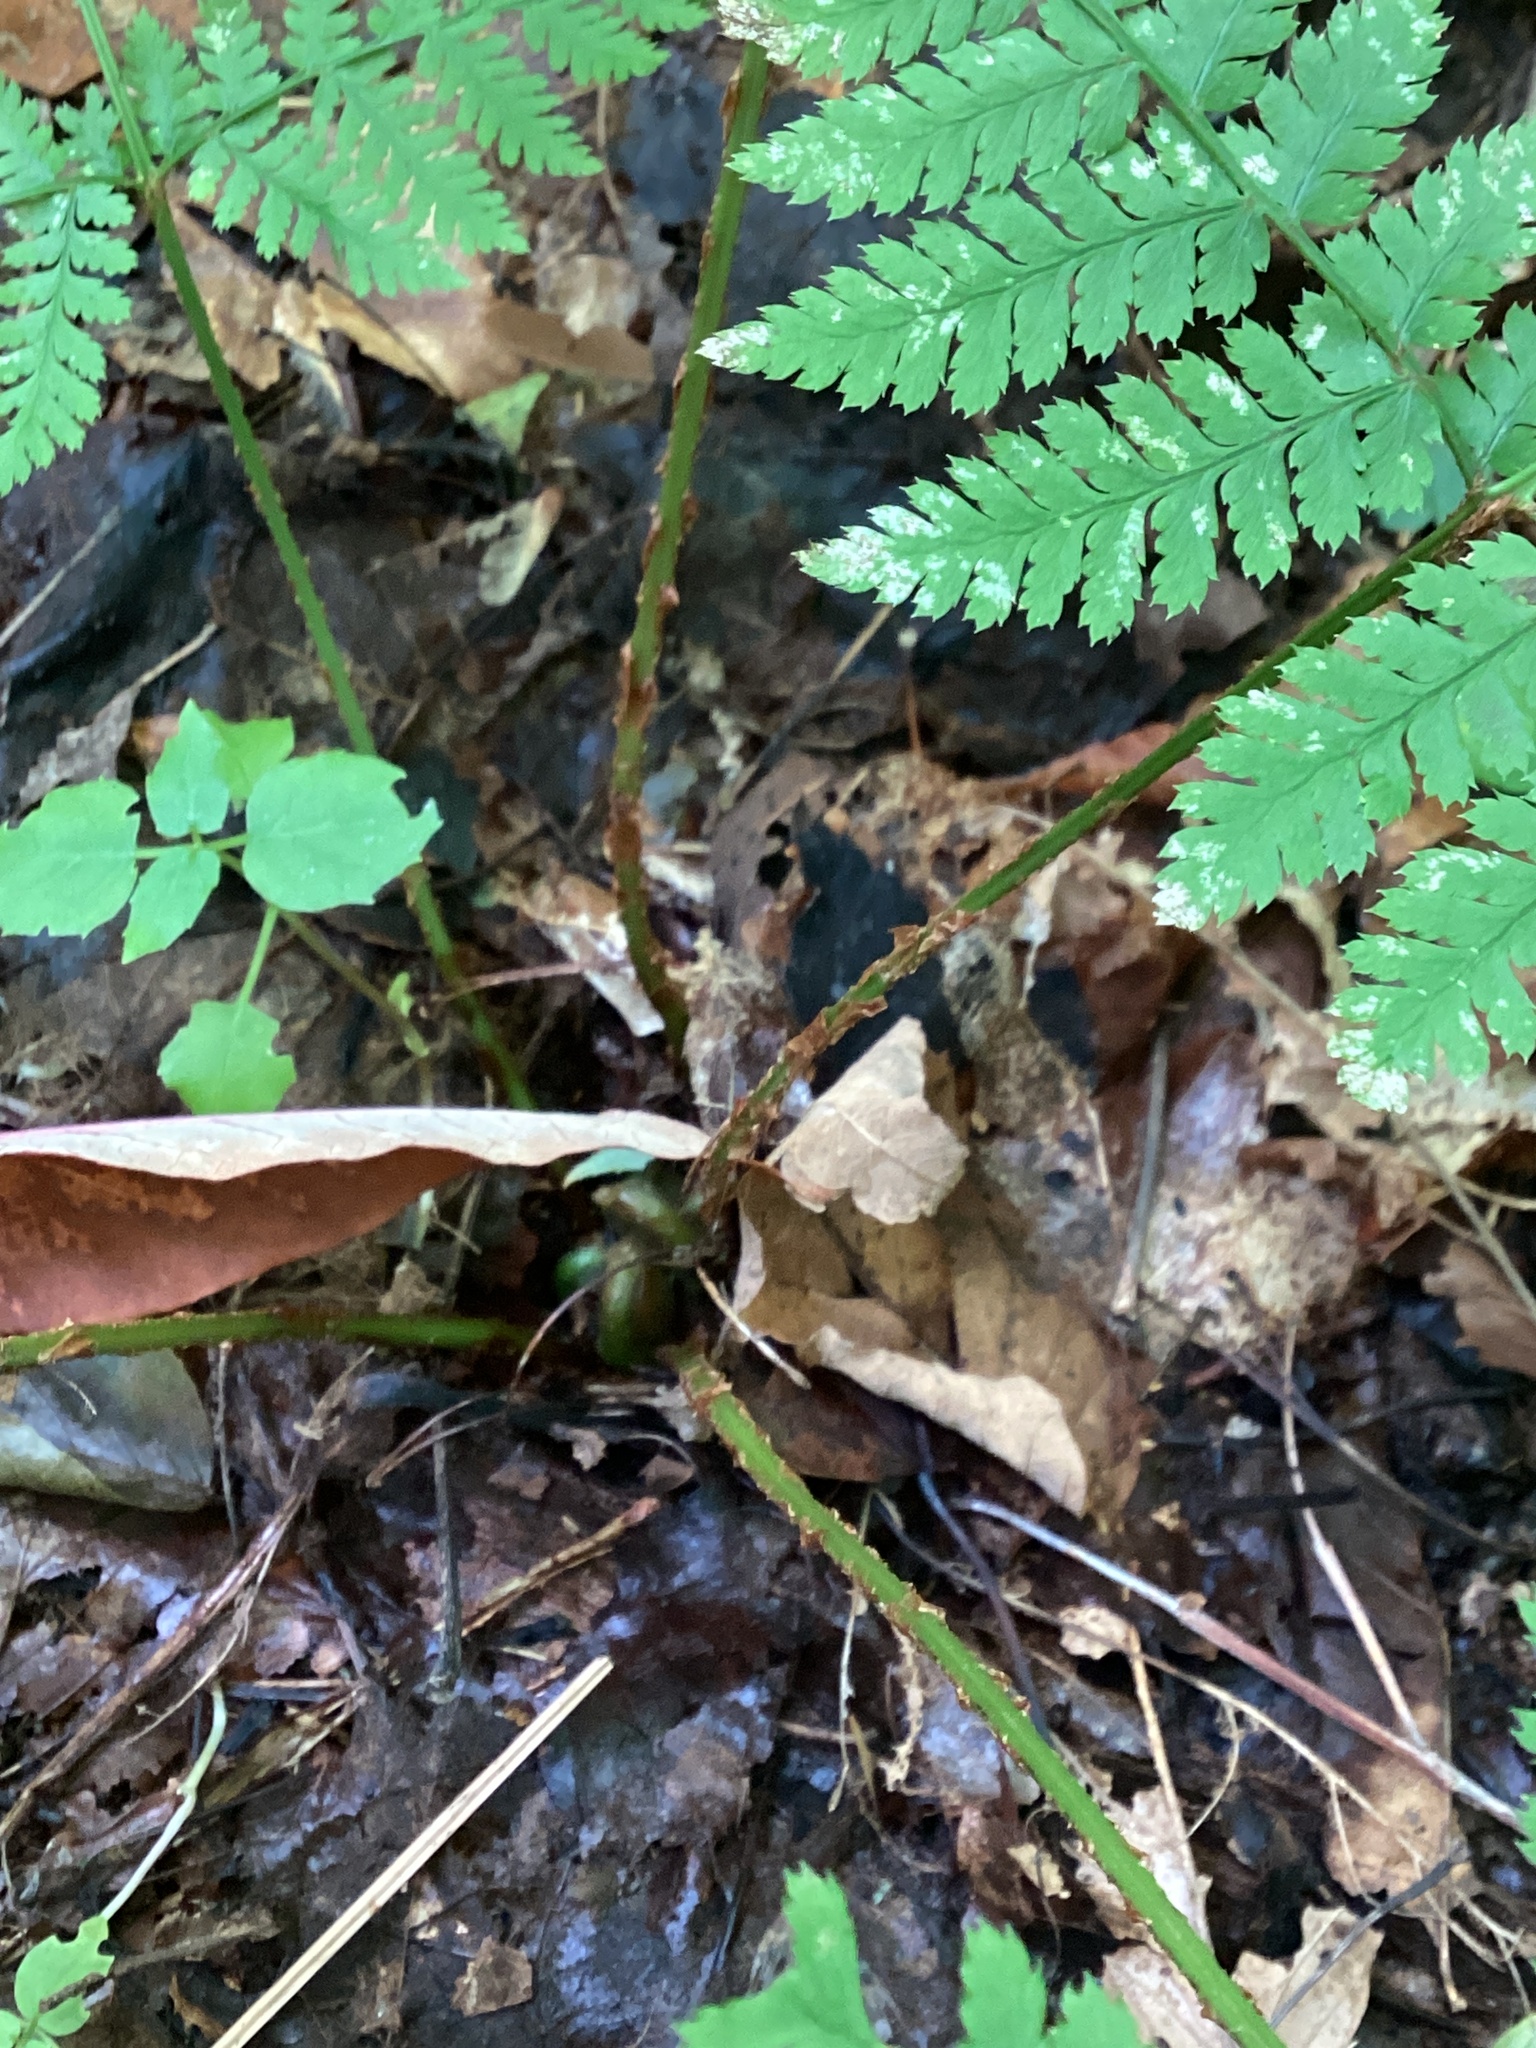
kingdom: Plantae
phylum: Tracheophyta
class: Polypodiopsida
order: Polypodiales
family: Dryopteridaceae
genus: Dryopteris
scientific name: Dryopteris campyloptera
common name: Mountain wood fern
